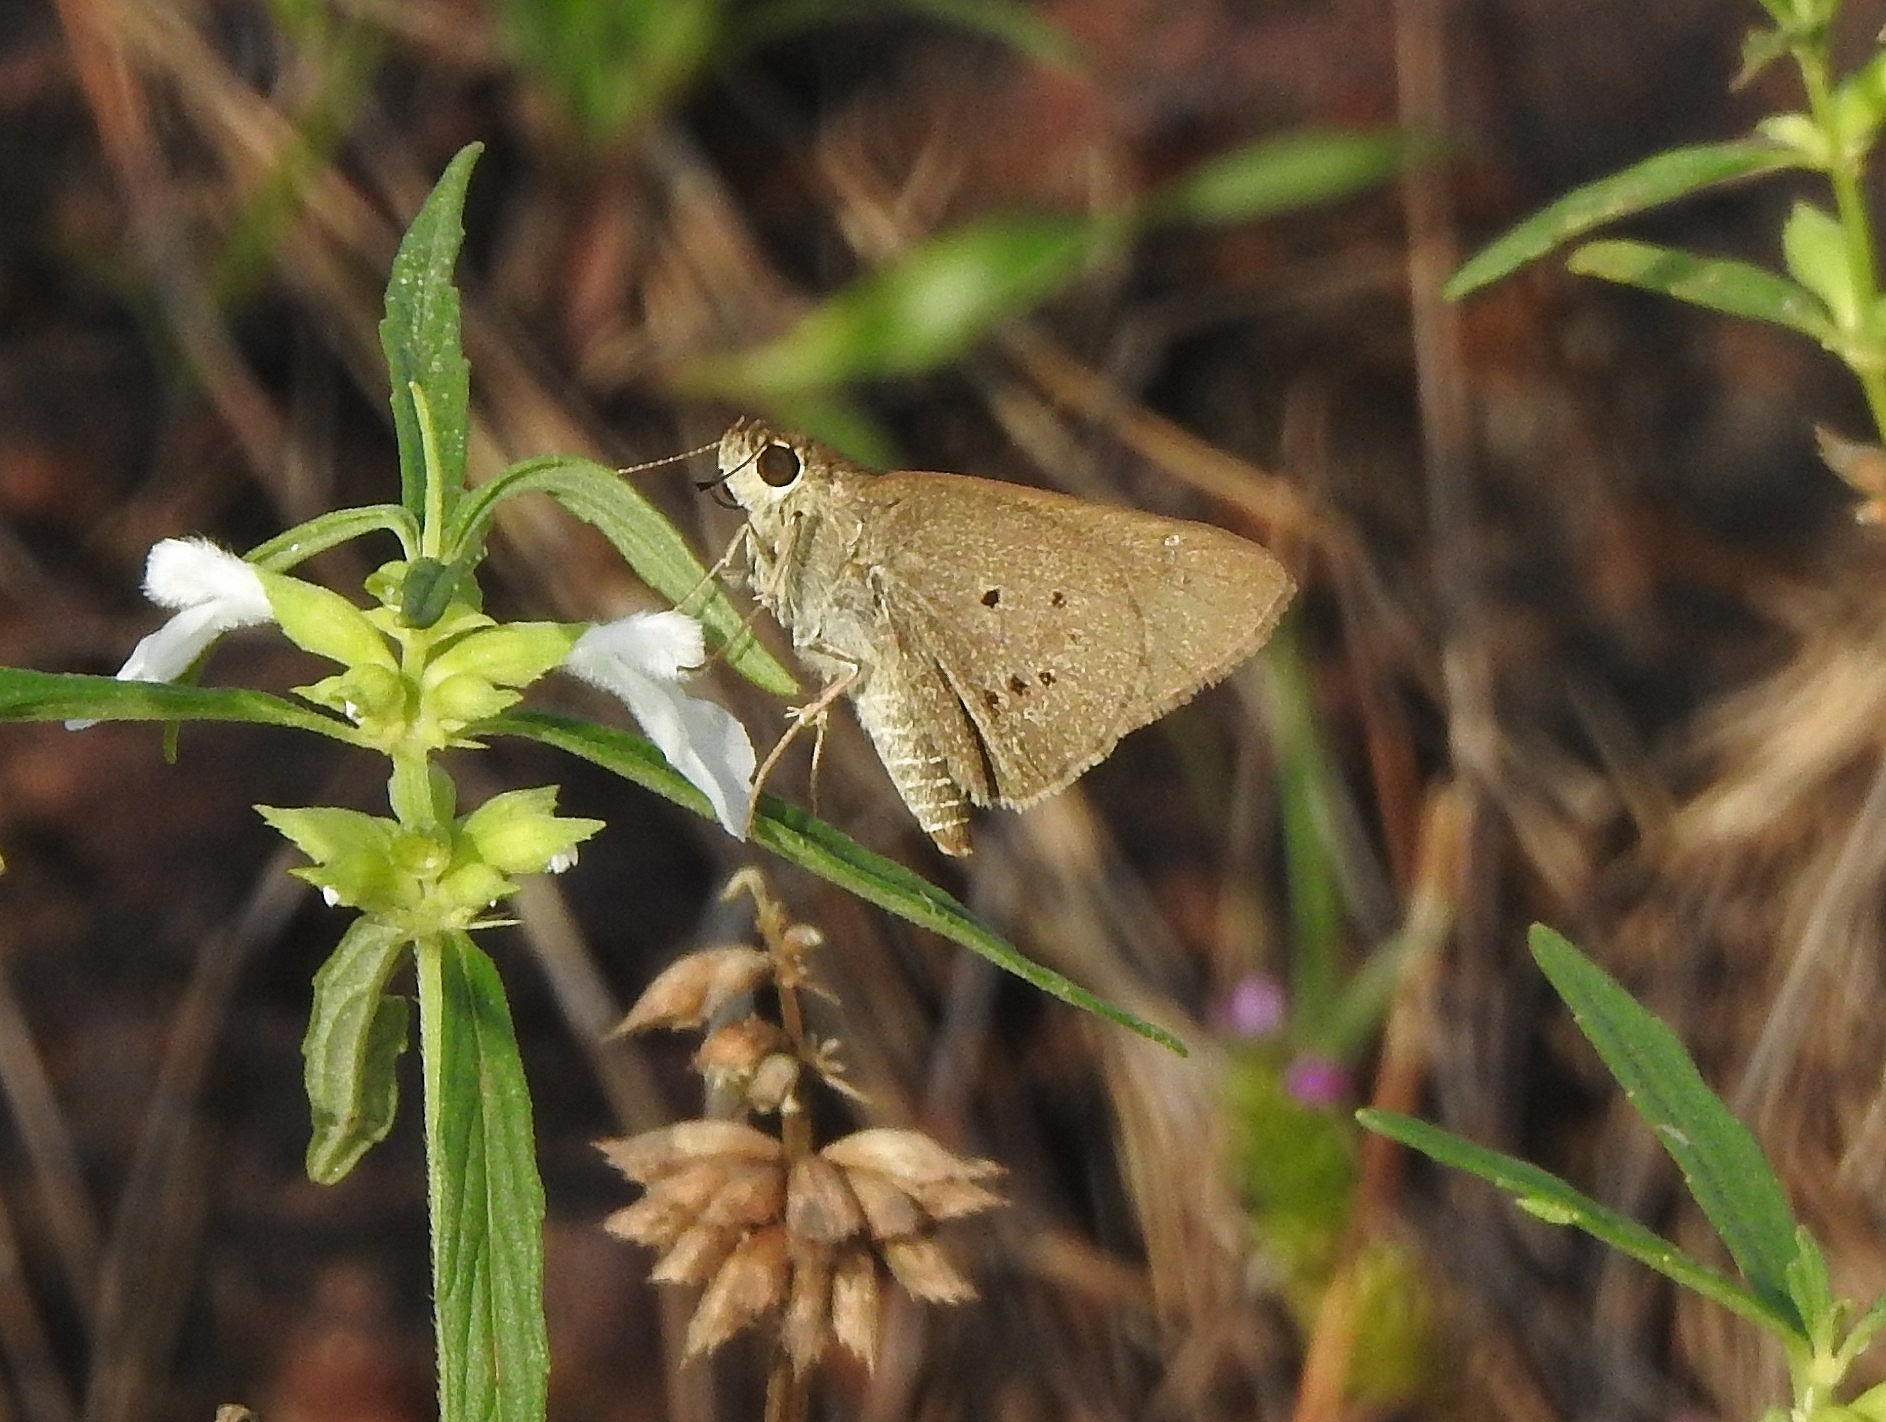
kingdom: Animalia
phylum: Arthropoda
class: Insecta
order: Lepidoptera
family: Hesperiidae
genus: Suastus
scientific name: Suastus gremius
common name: Indian palm bob
